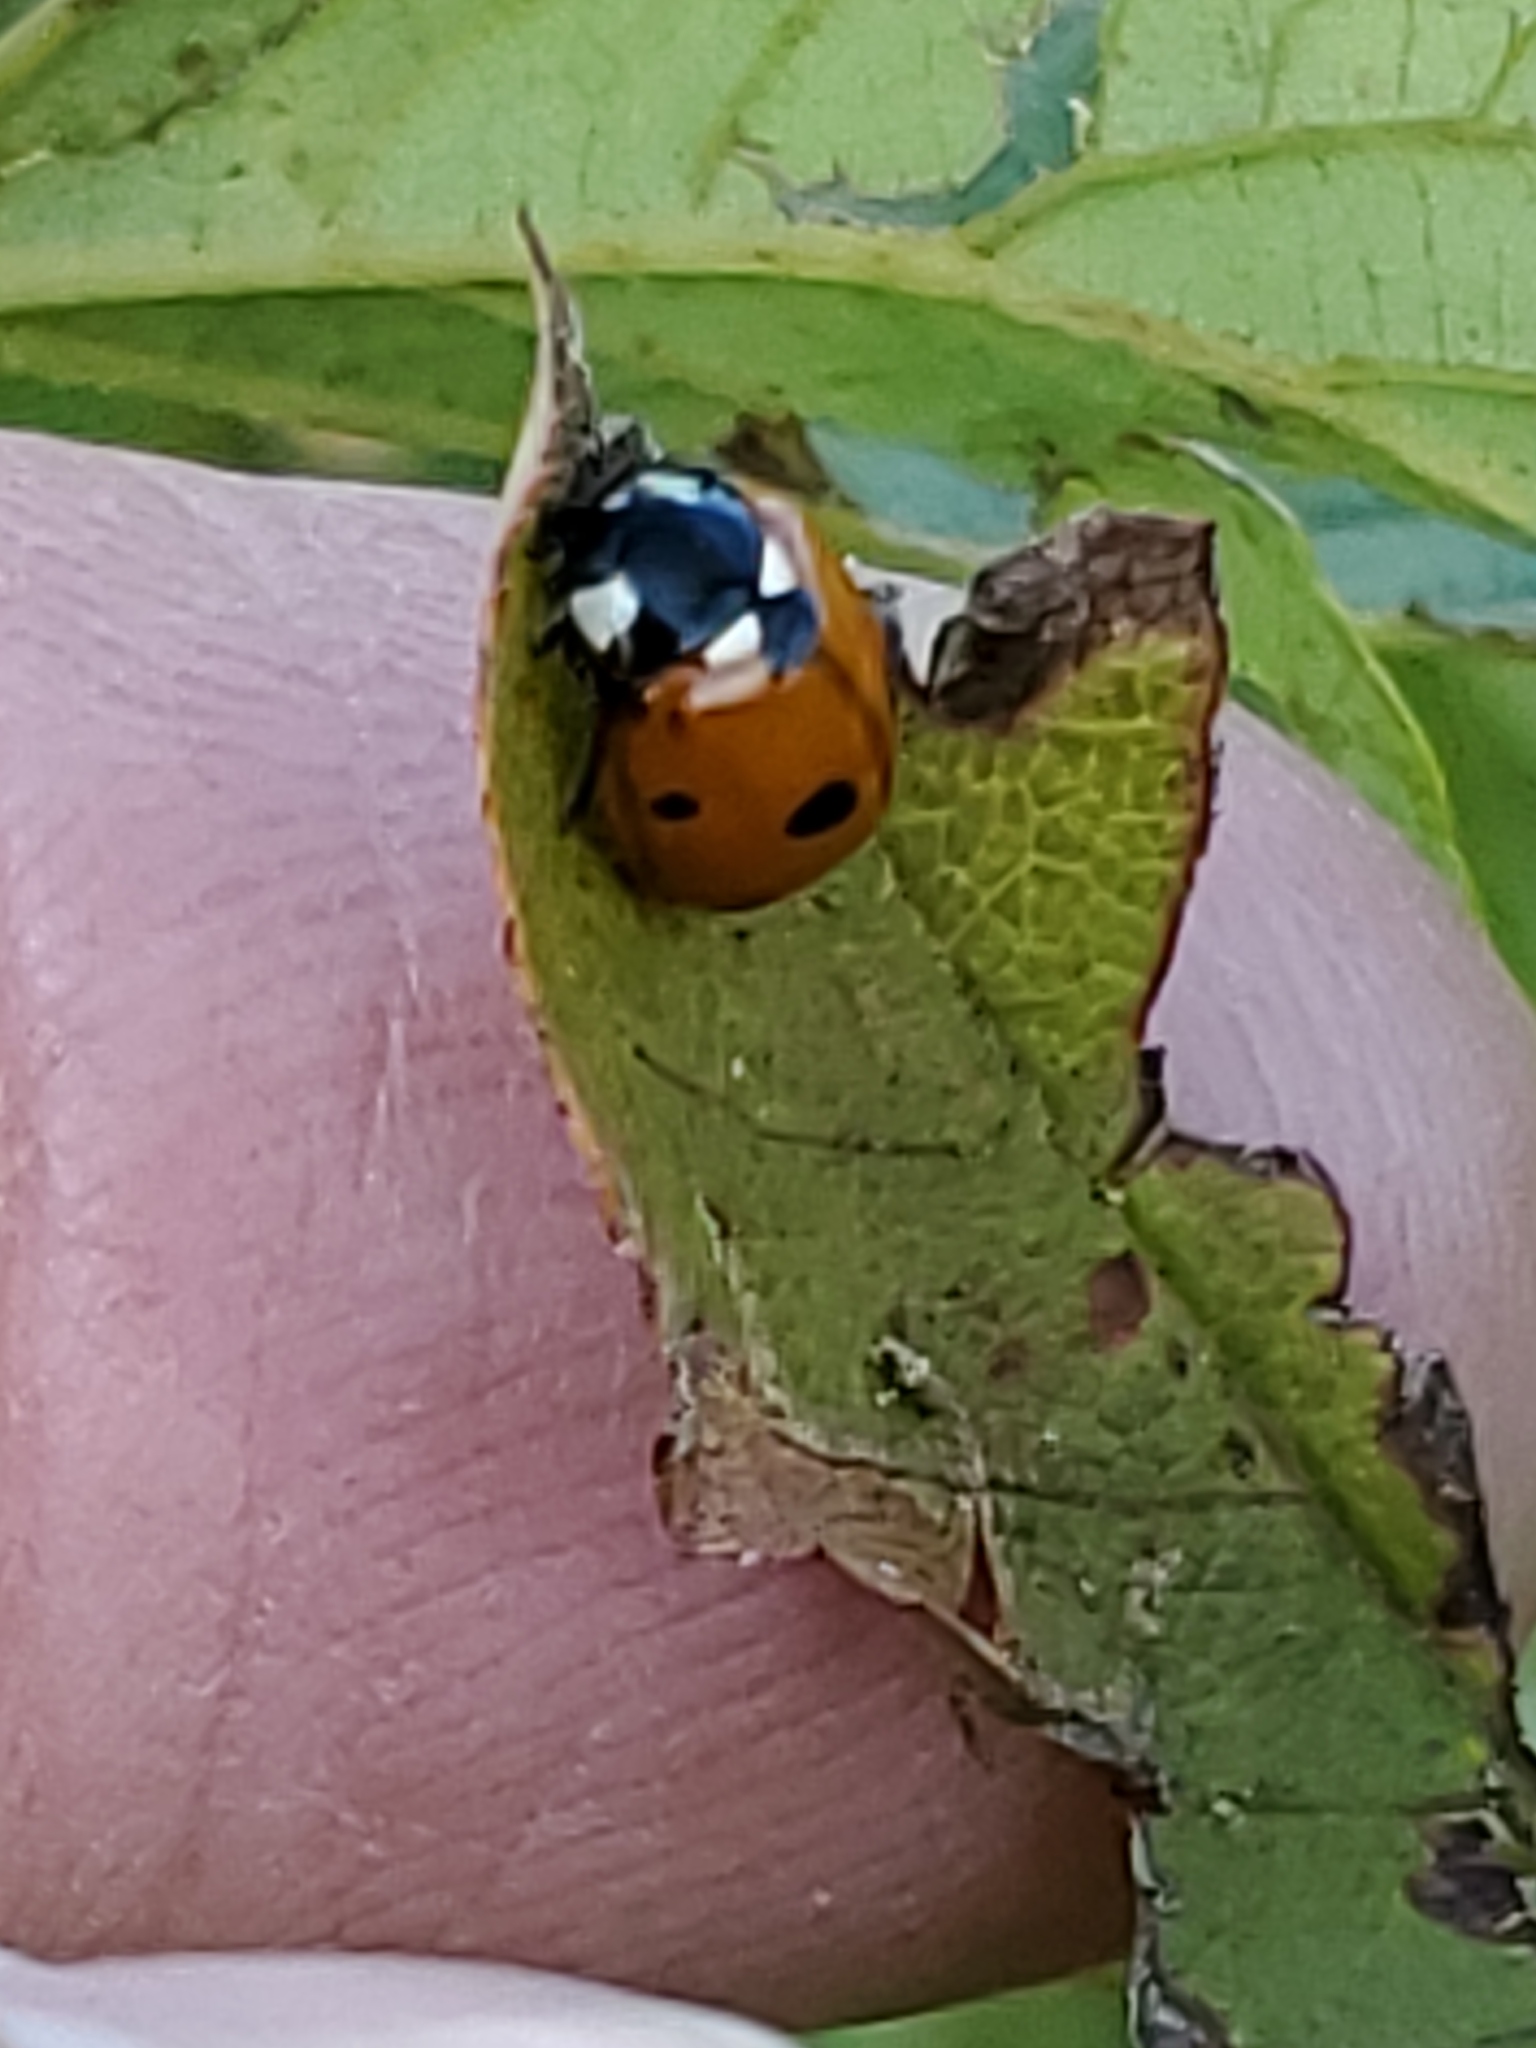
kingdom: Animalia
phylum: Arthropoda
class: Insecta
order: Coleoptera
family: Coccinellidae
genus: Coccinella
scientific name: Coccinella septempunctata
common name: Sevenspotted lady beetle
